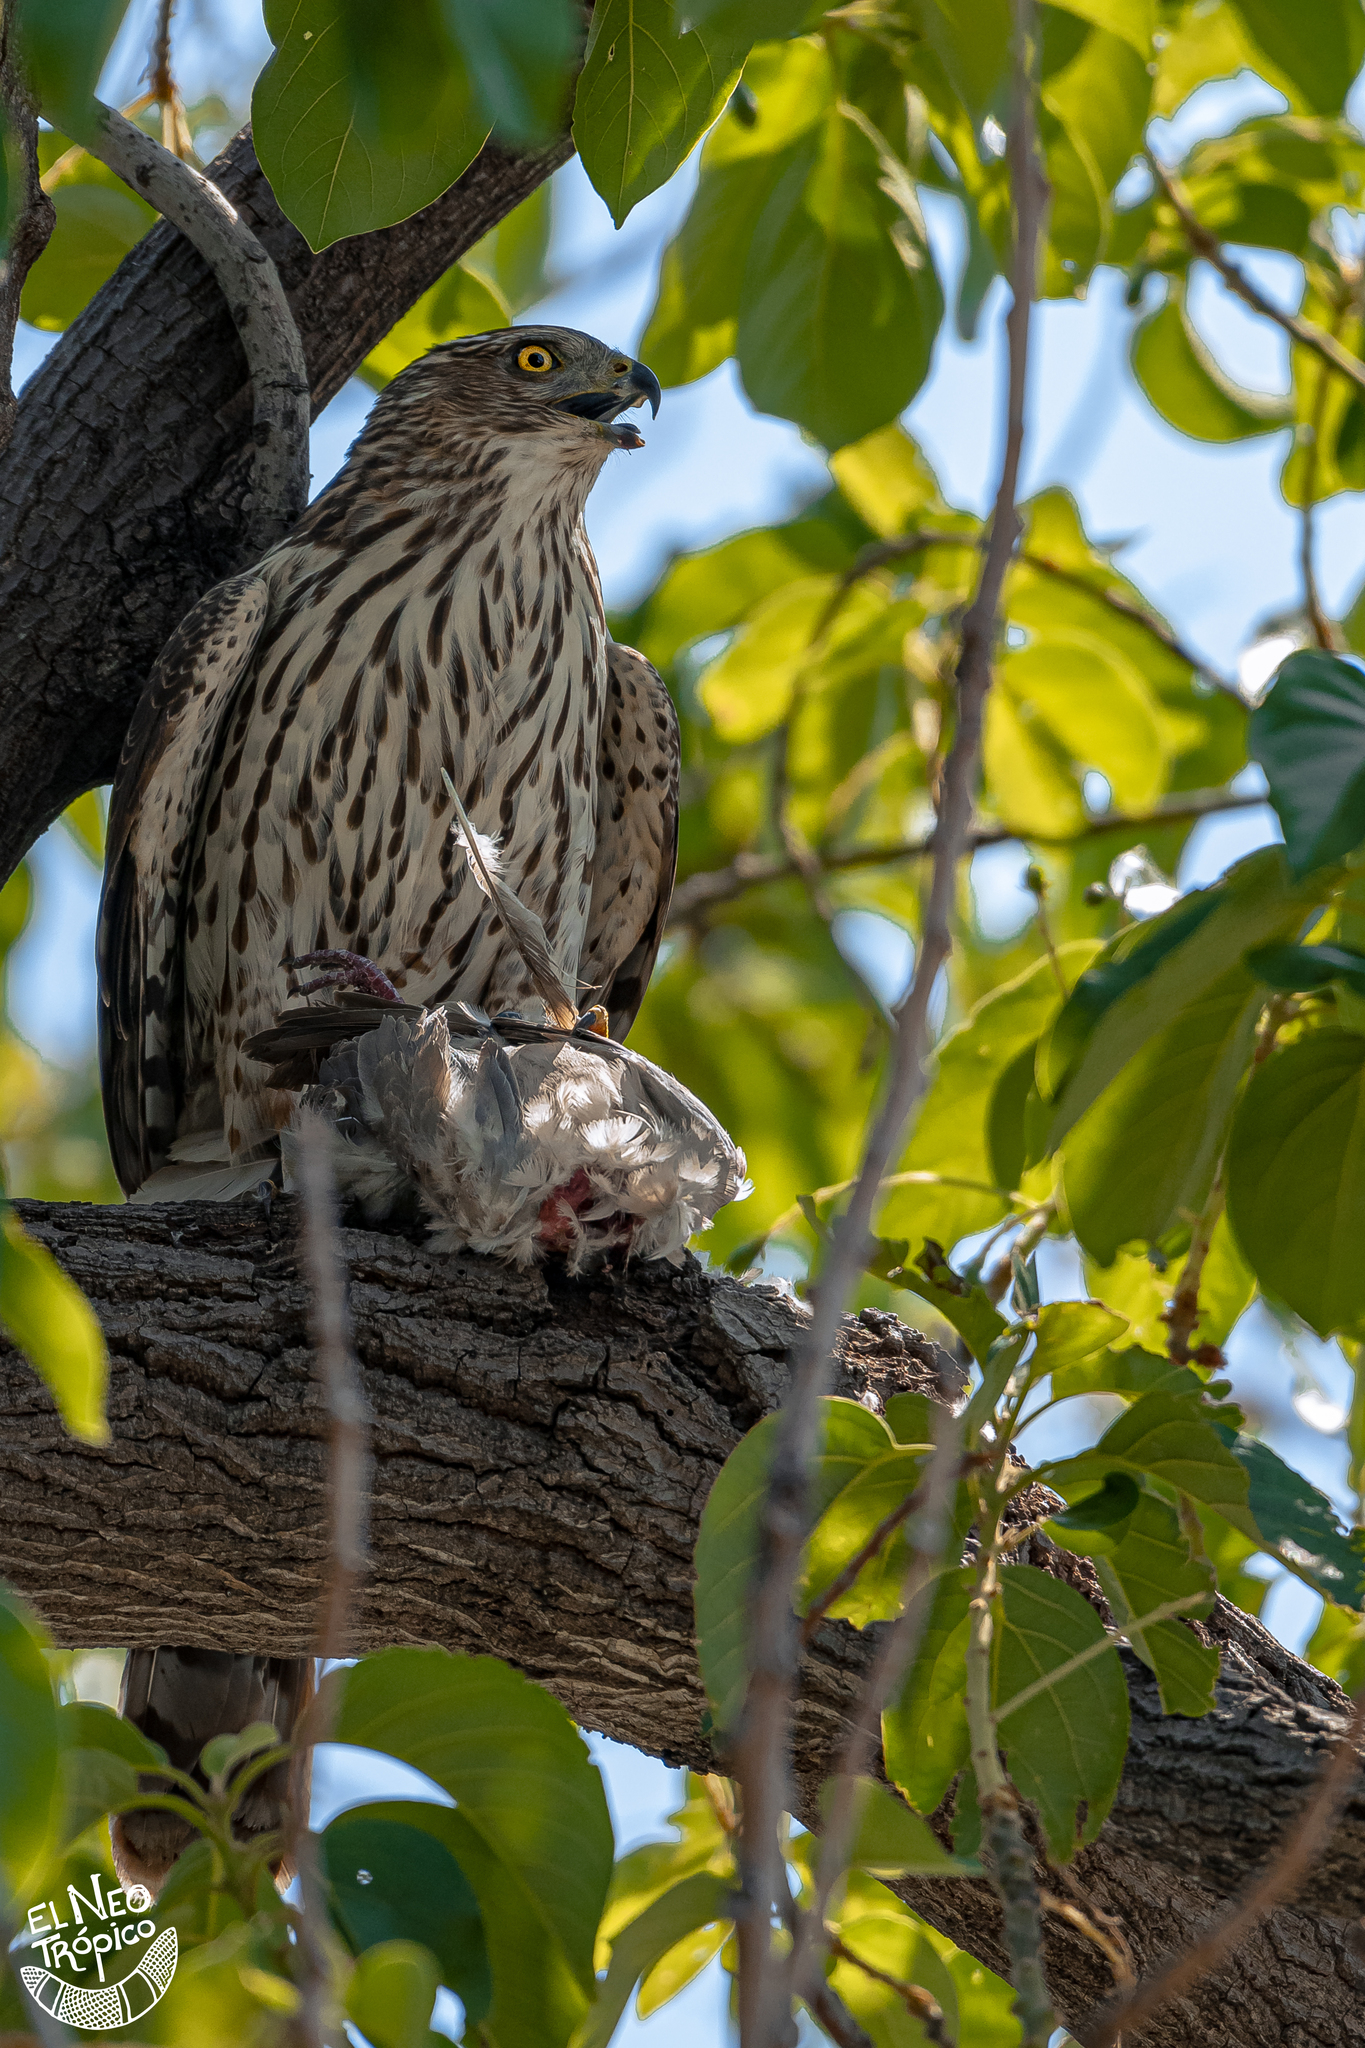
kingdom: Animalia
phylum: Chordata
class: Aves
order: Accipitriformes
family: Accipitridae
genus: Accipiter
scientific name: Accipiter cooperii
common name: Cooper's hawk
